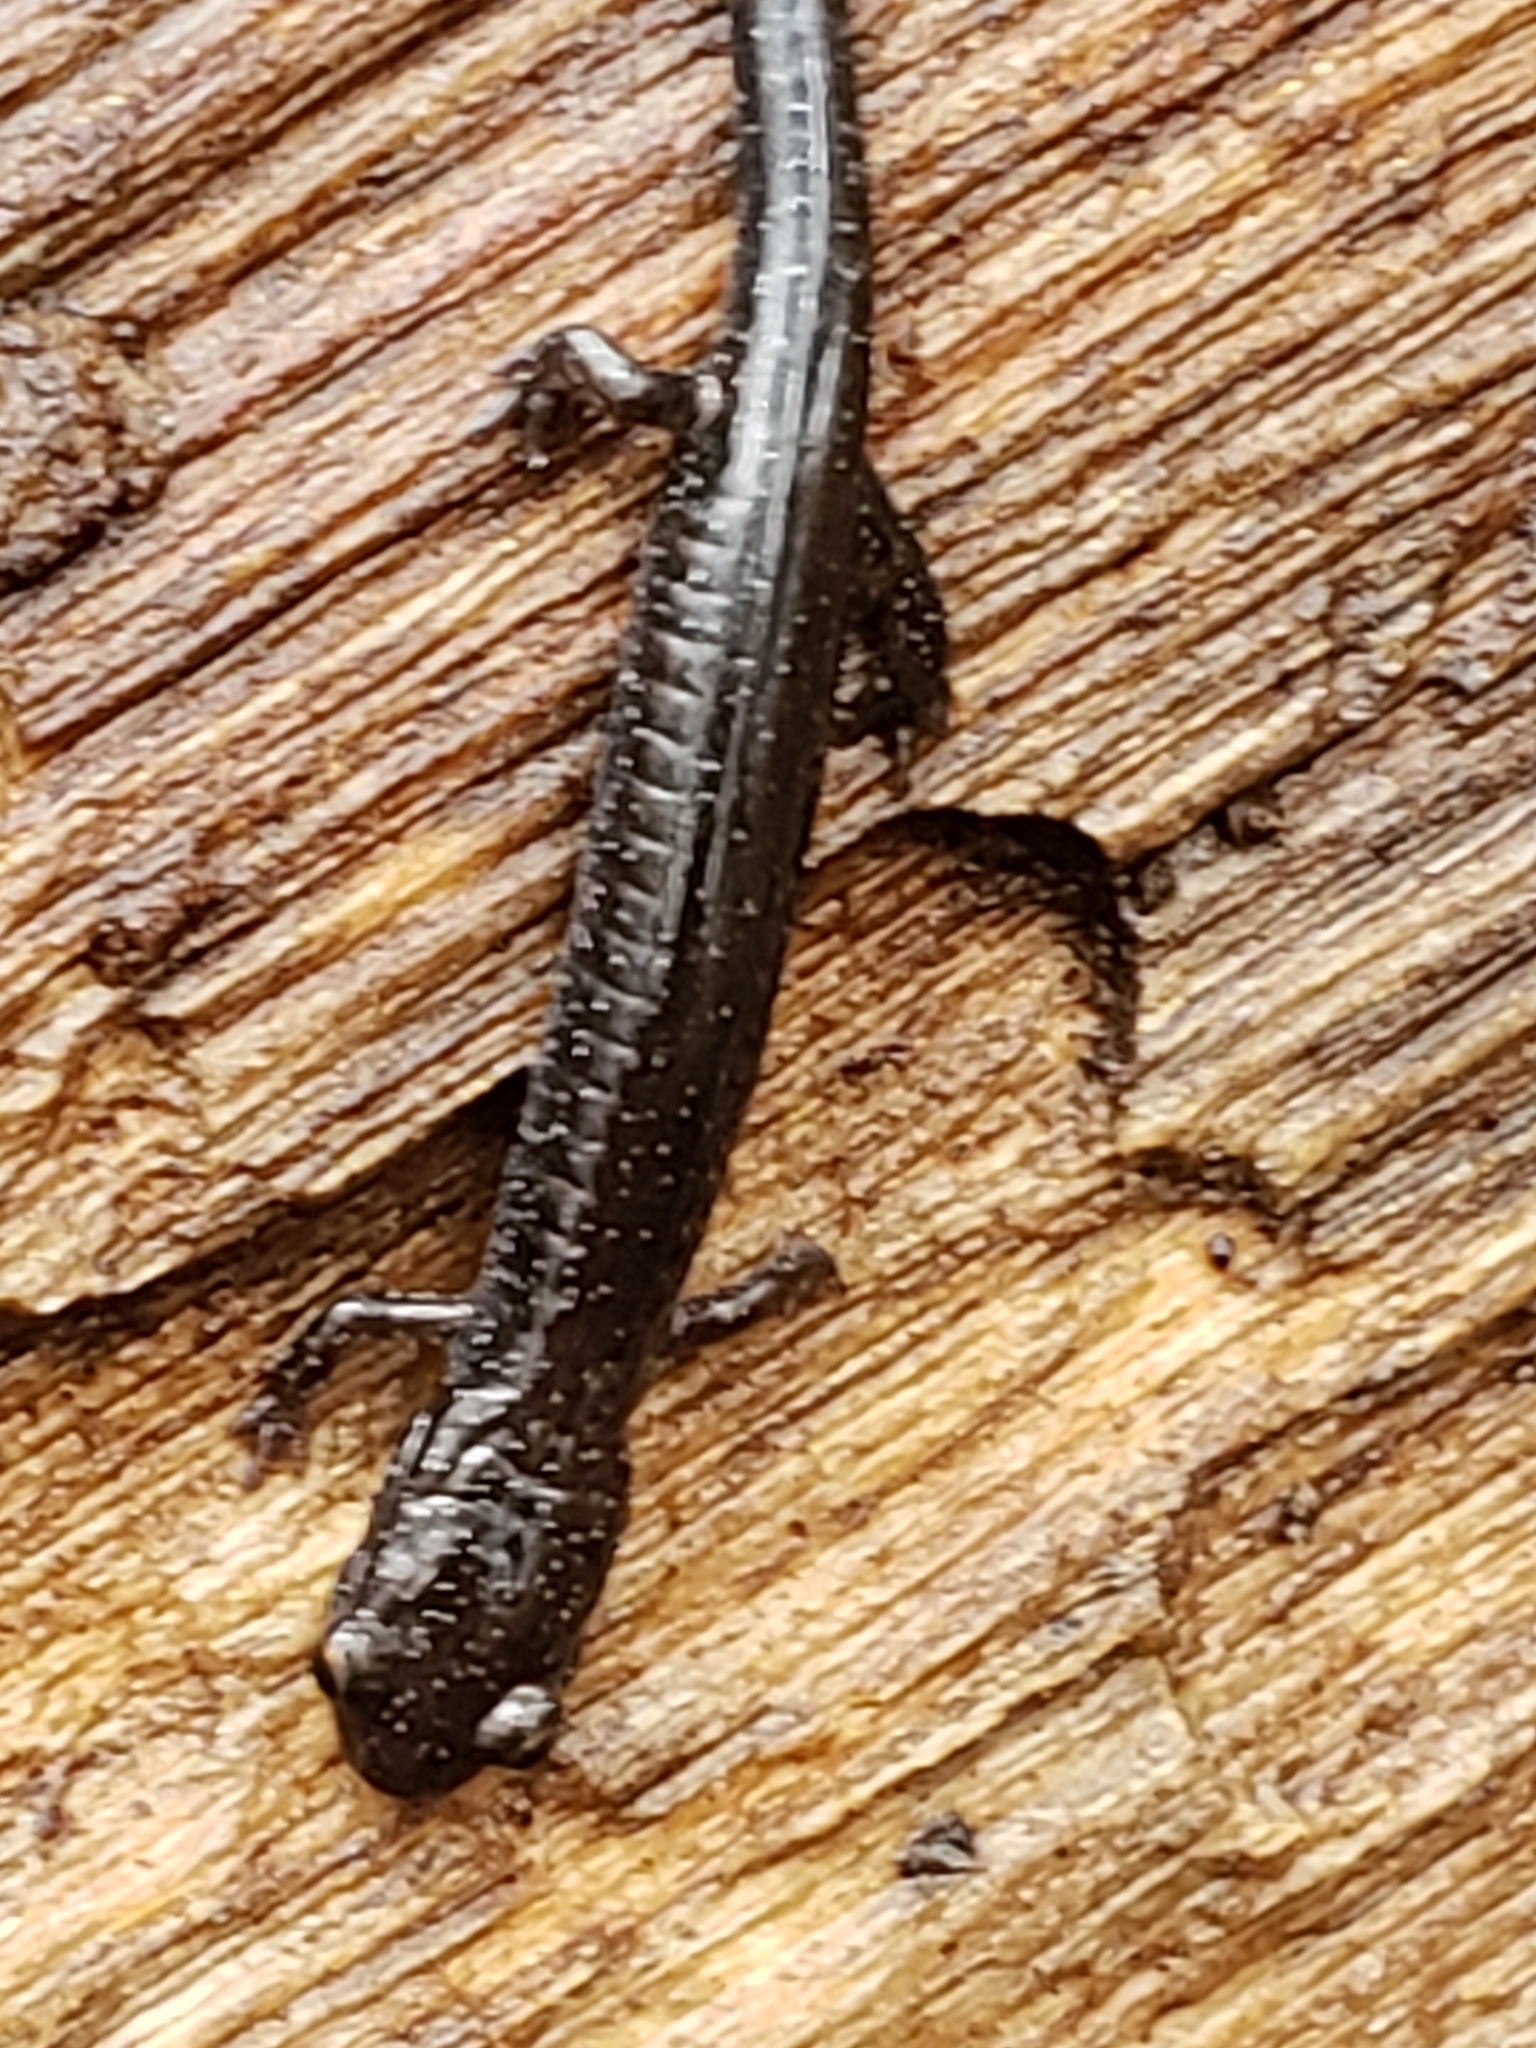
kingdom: Animalia
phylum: Chordata
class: Amphibia
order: Caudata
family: Plethodontidae
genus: Plethodon
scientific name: Plethodon cinereus
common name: Redback salamander
